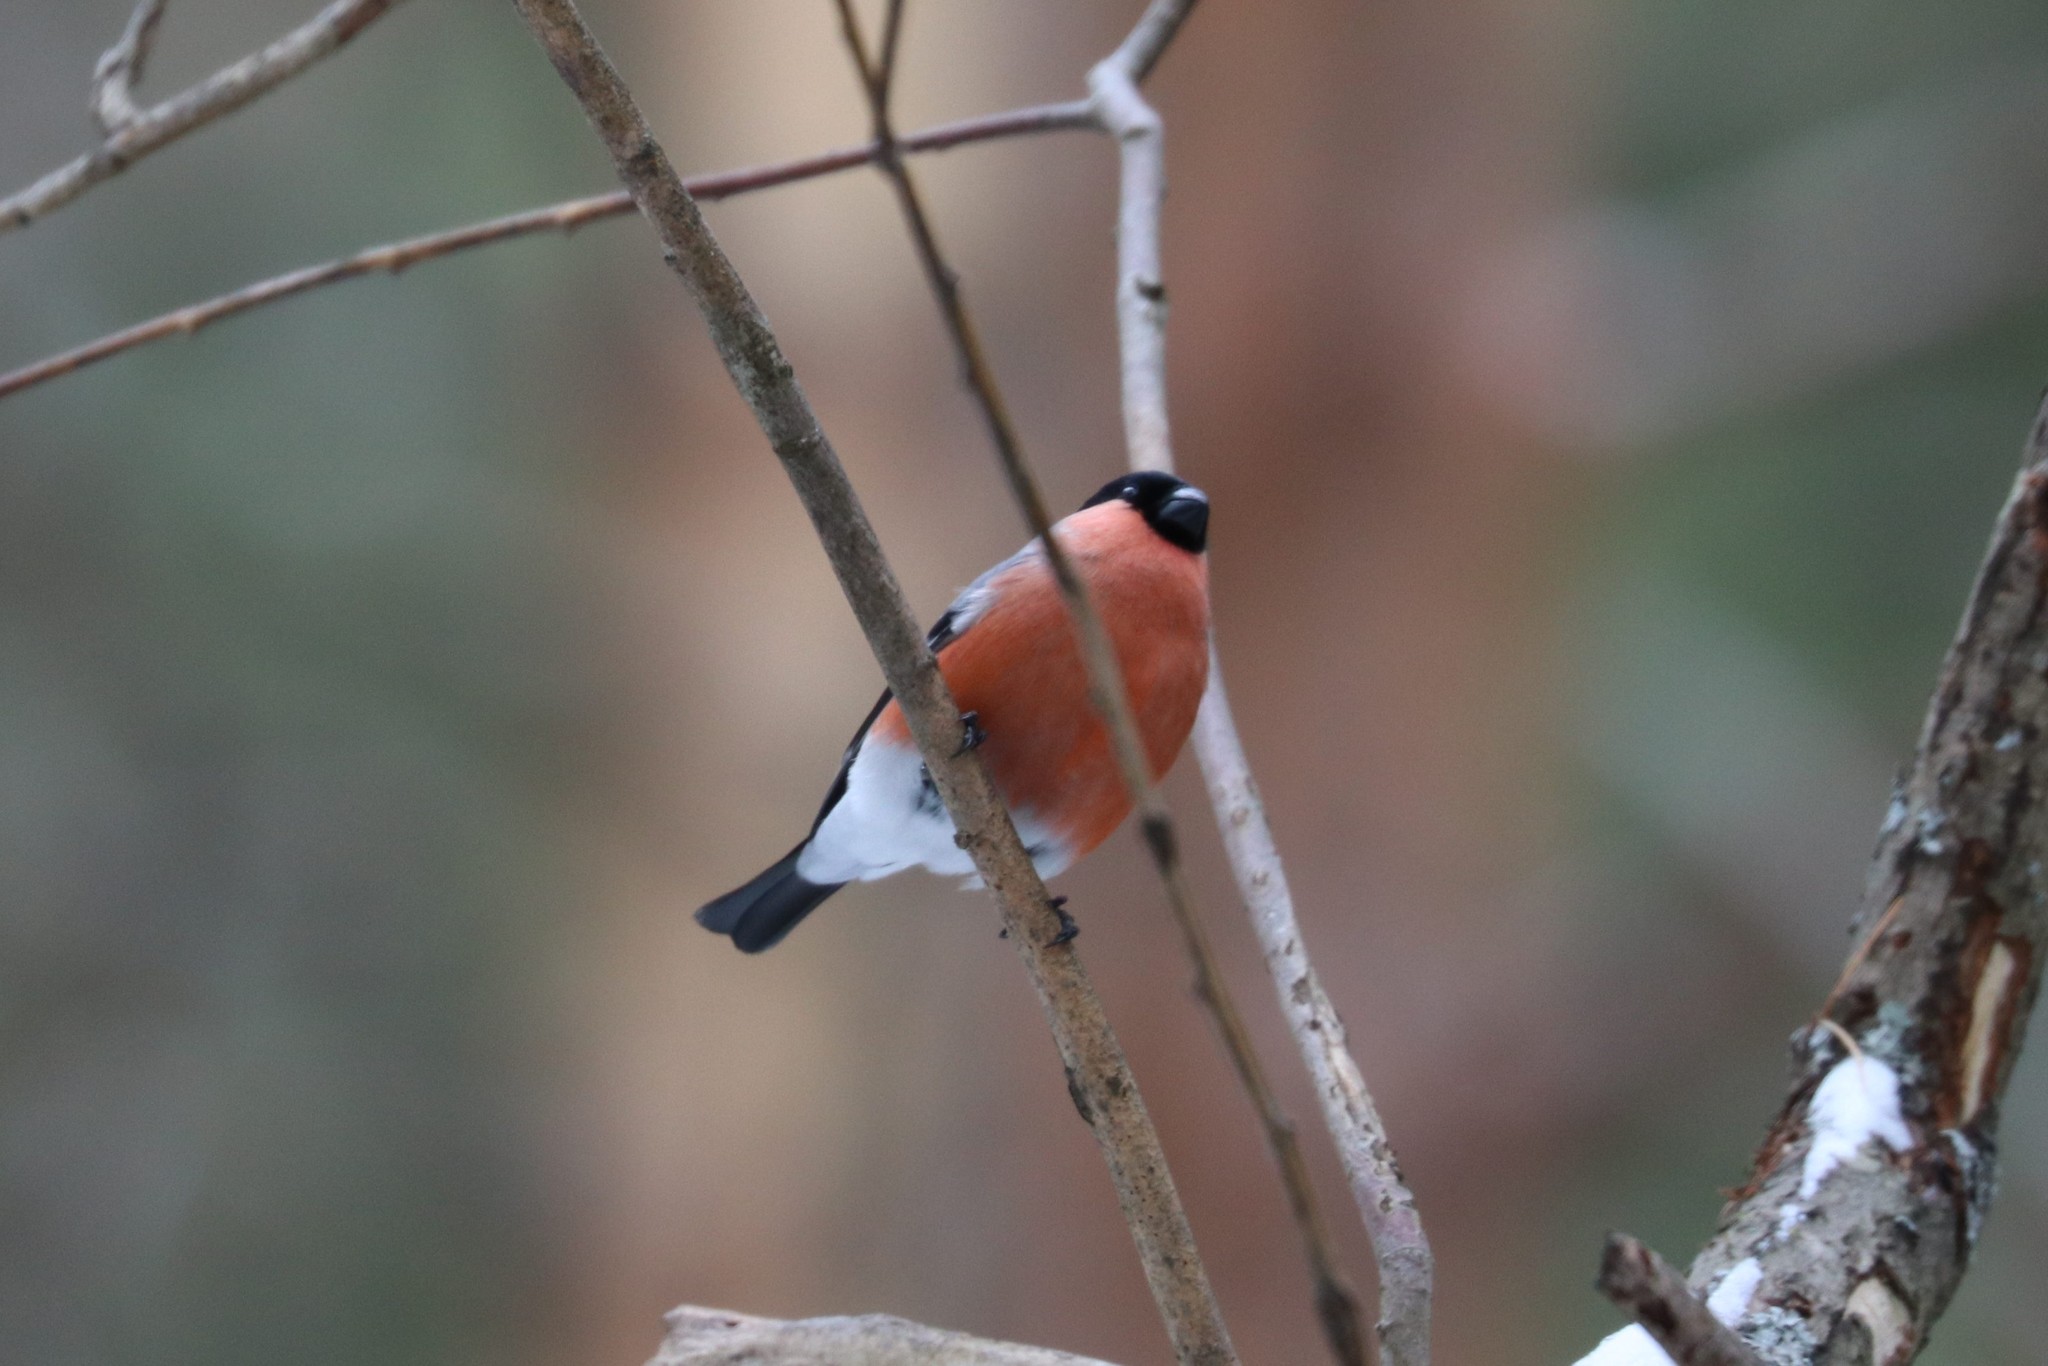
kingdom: Animalia
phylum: Chordata
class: Aves
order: Passeriformes
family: Fringillidae
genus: Pyrrhula
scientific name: Pyrrhula pyrrhula
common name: Eurasian bullfinch
